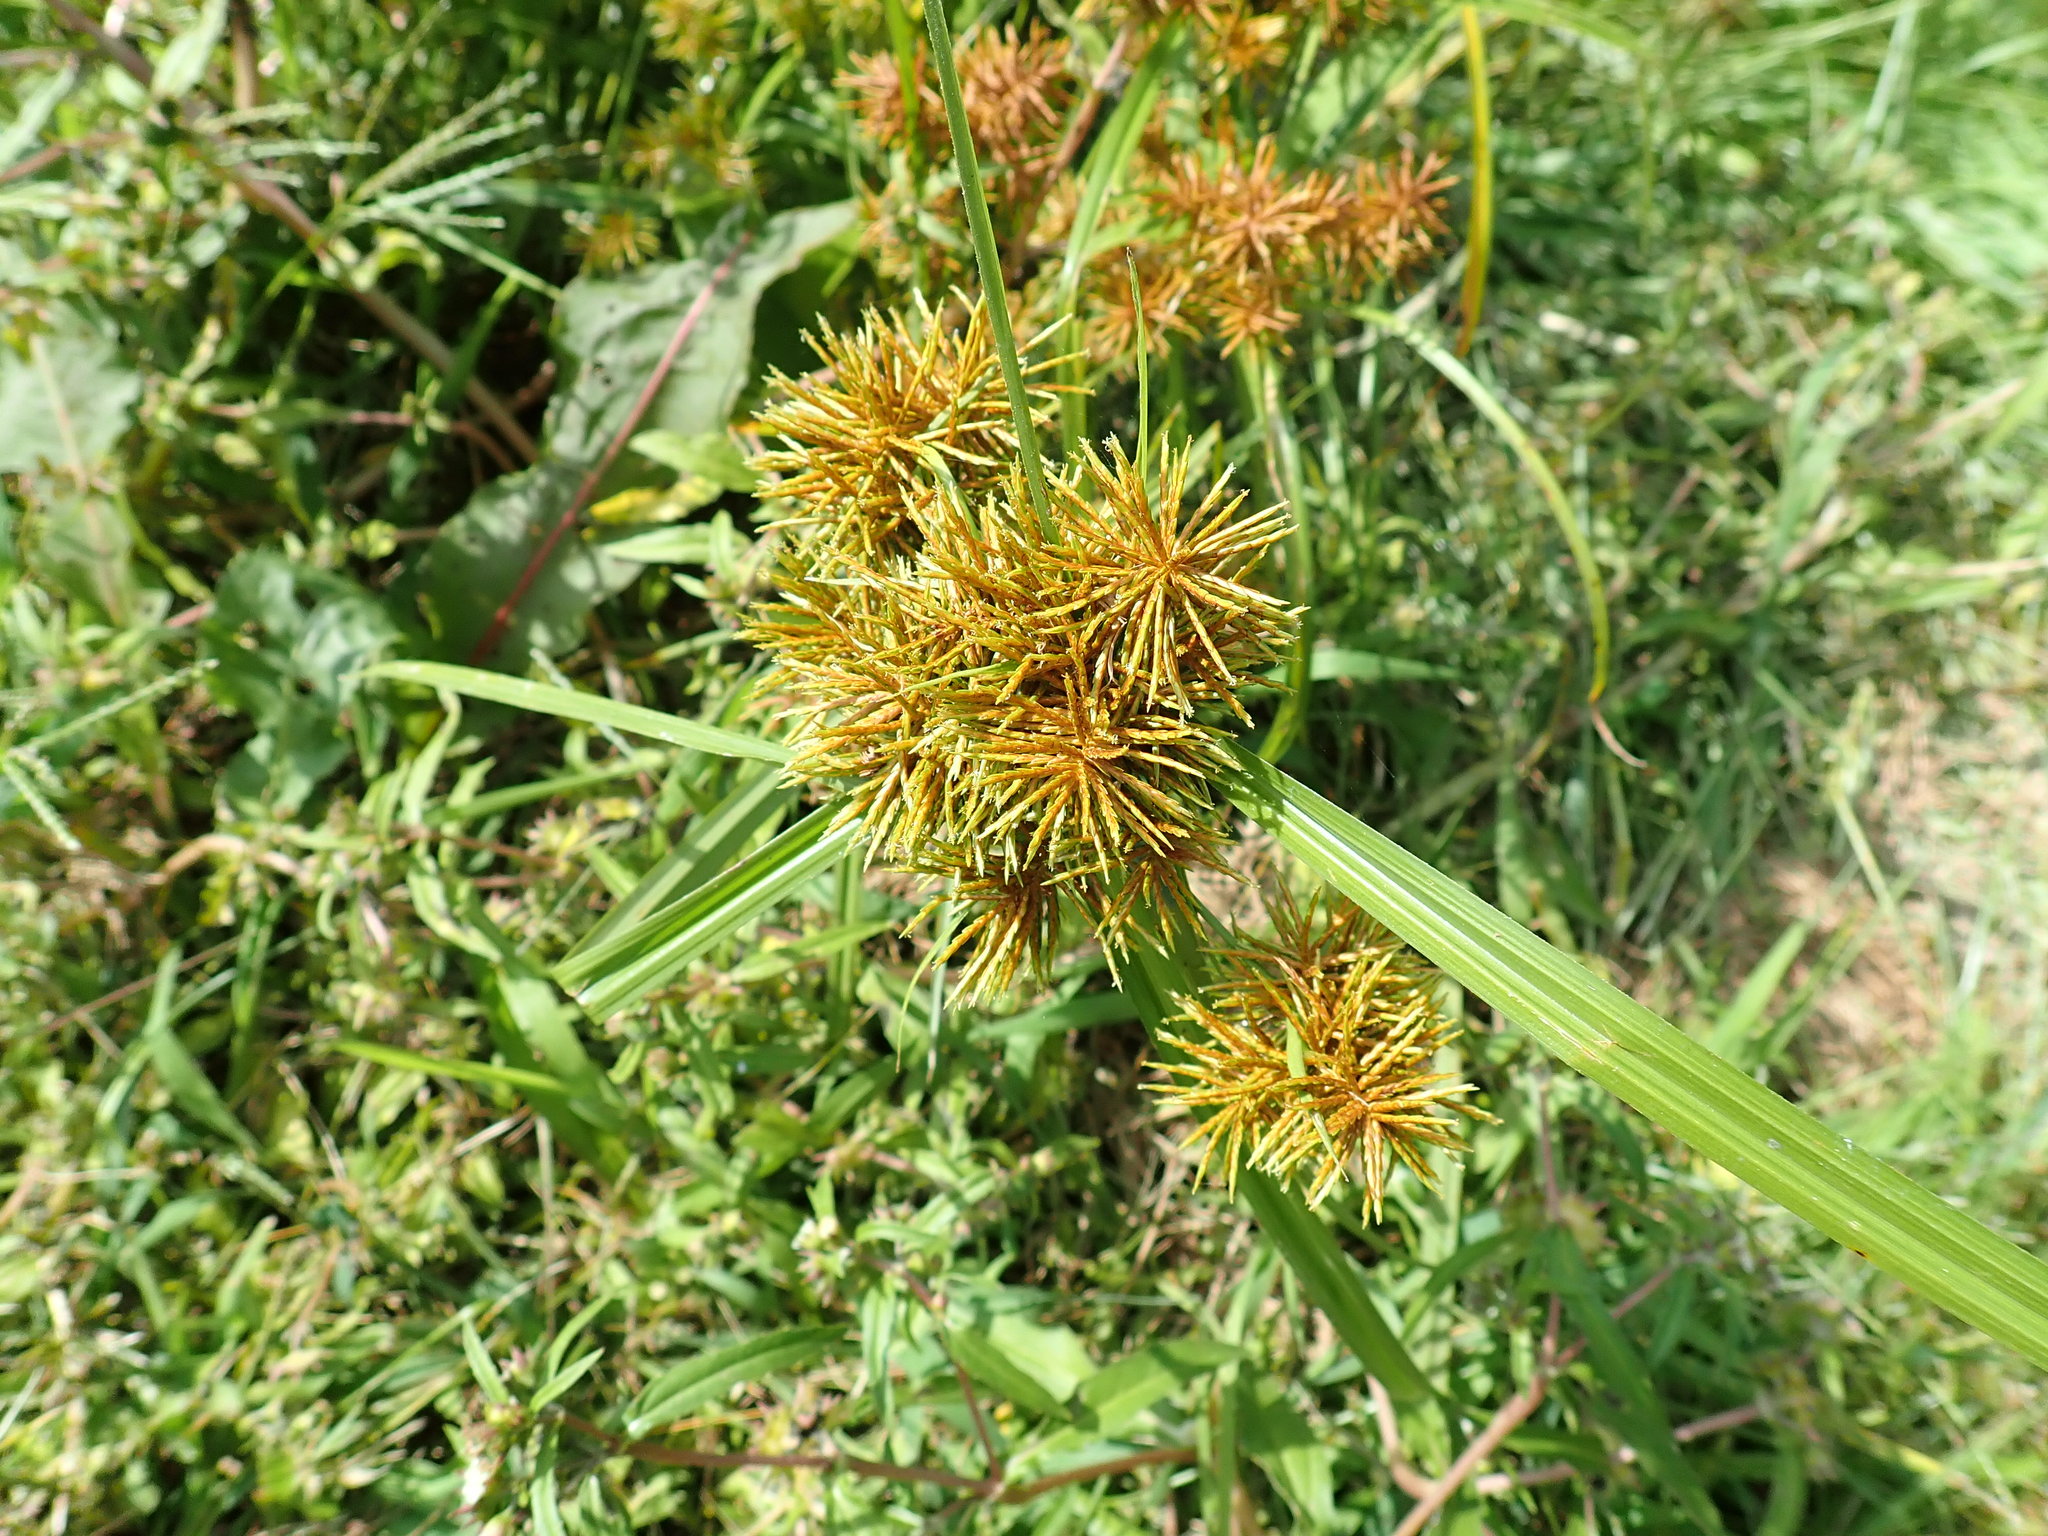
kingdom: Plantae
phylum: Tracheophyta
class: Liliopsida
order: Poales
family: Cyperaceae
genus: Cyperus
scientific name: Cyperus
